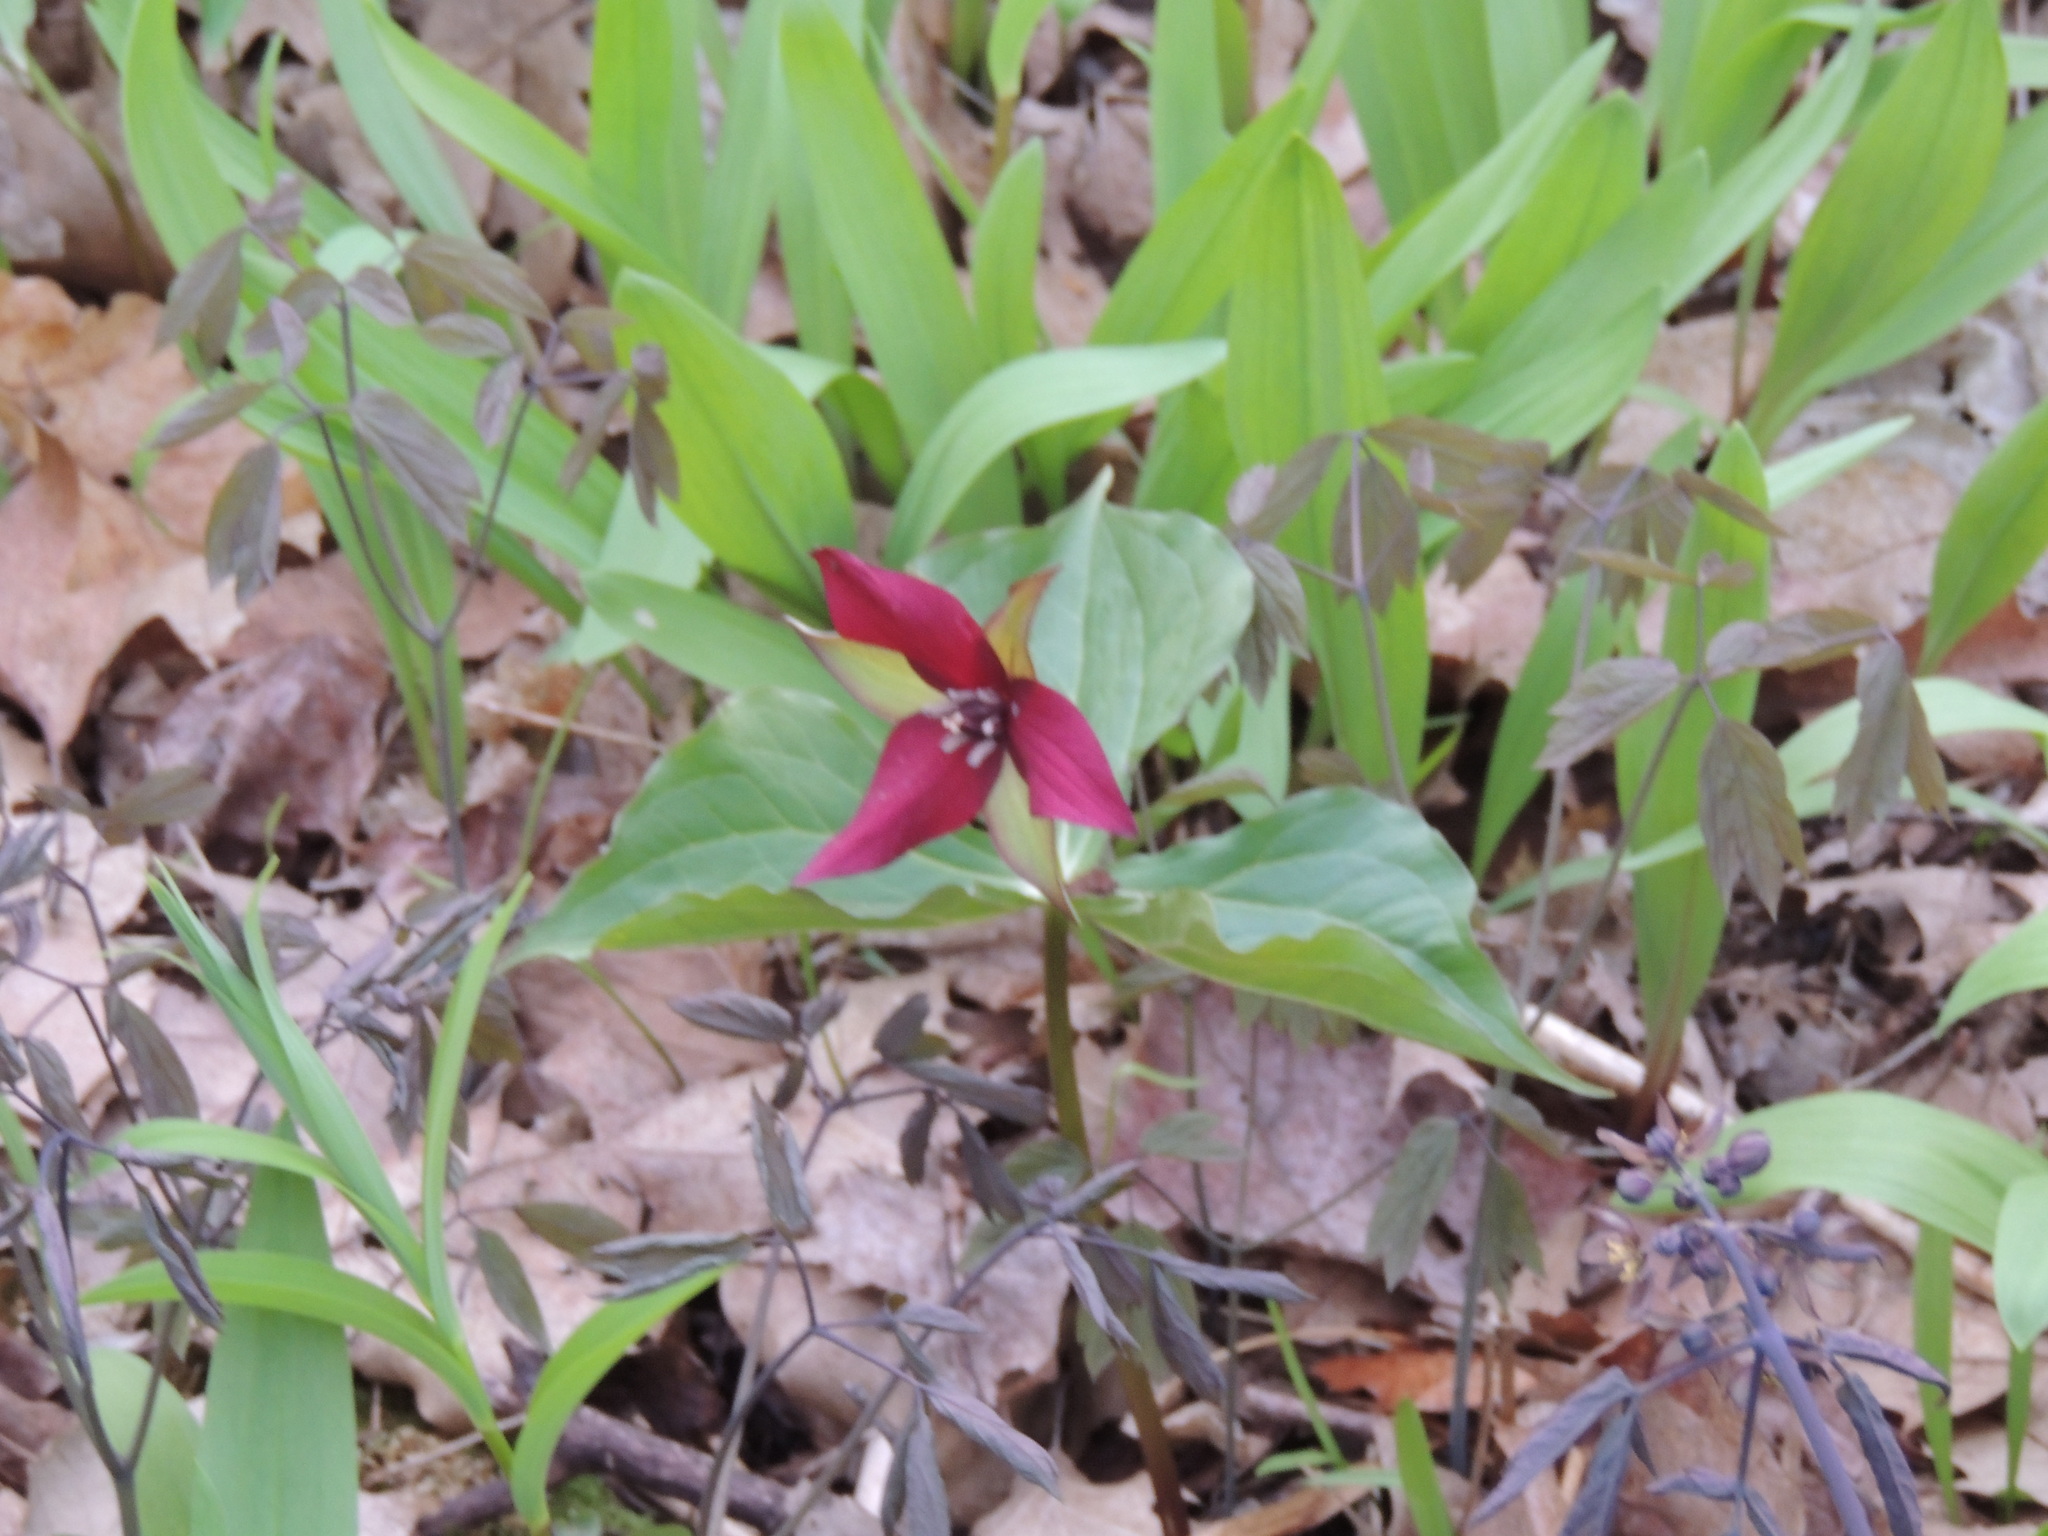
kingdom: Plantae
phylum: Tracheophyta
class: Liliopsida
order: Liliales
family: Melanthiaceae
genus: Trillium
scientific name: Trillium erectum
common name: Purple trillium
